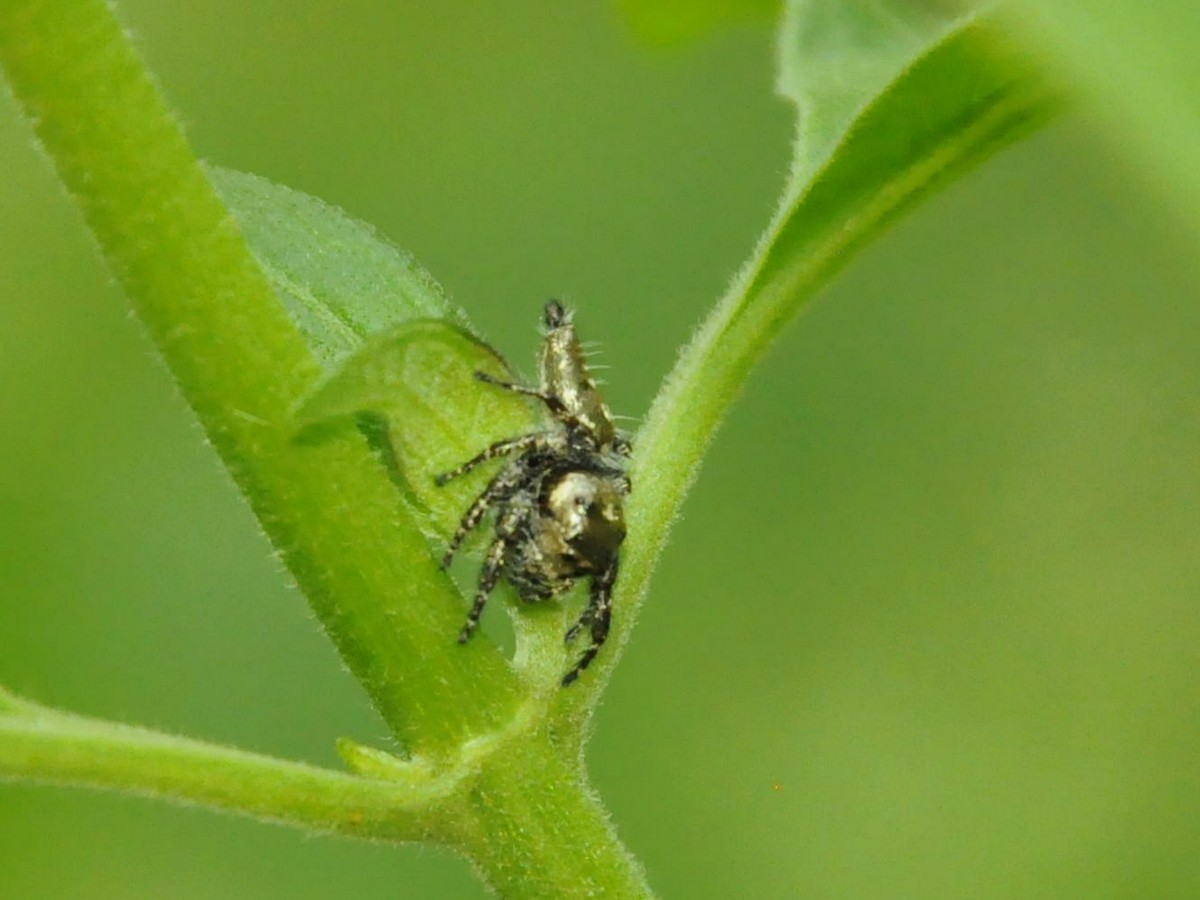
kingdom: Animalia
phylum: Arthropoda
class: Arachnida
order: Araneae
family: Salticidae
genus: Hyllus
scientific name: Hyllus semicupreus
